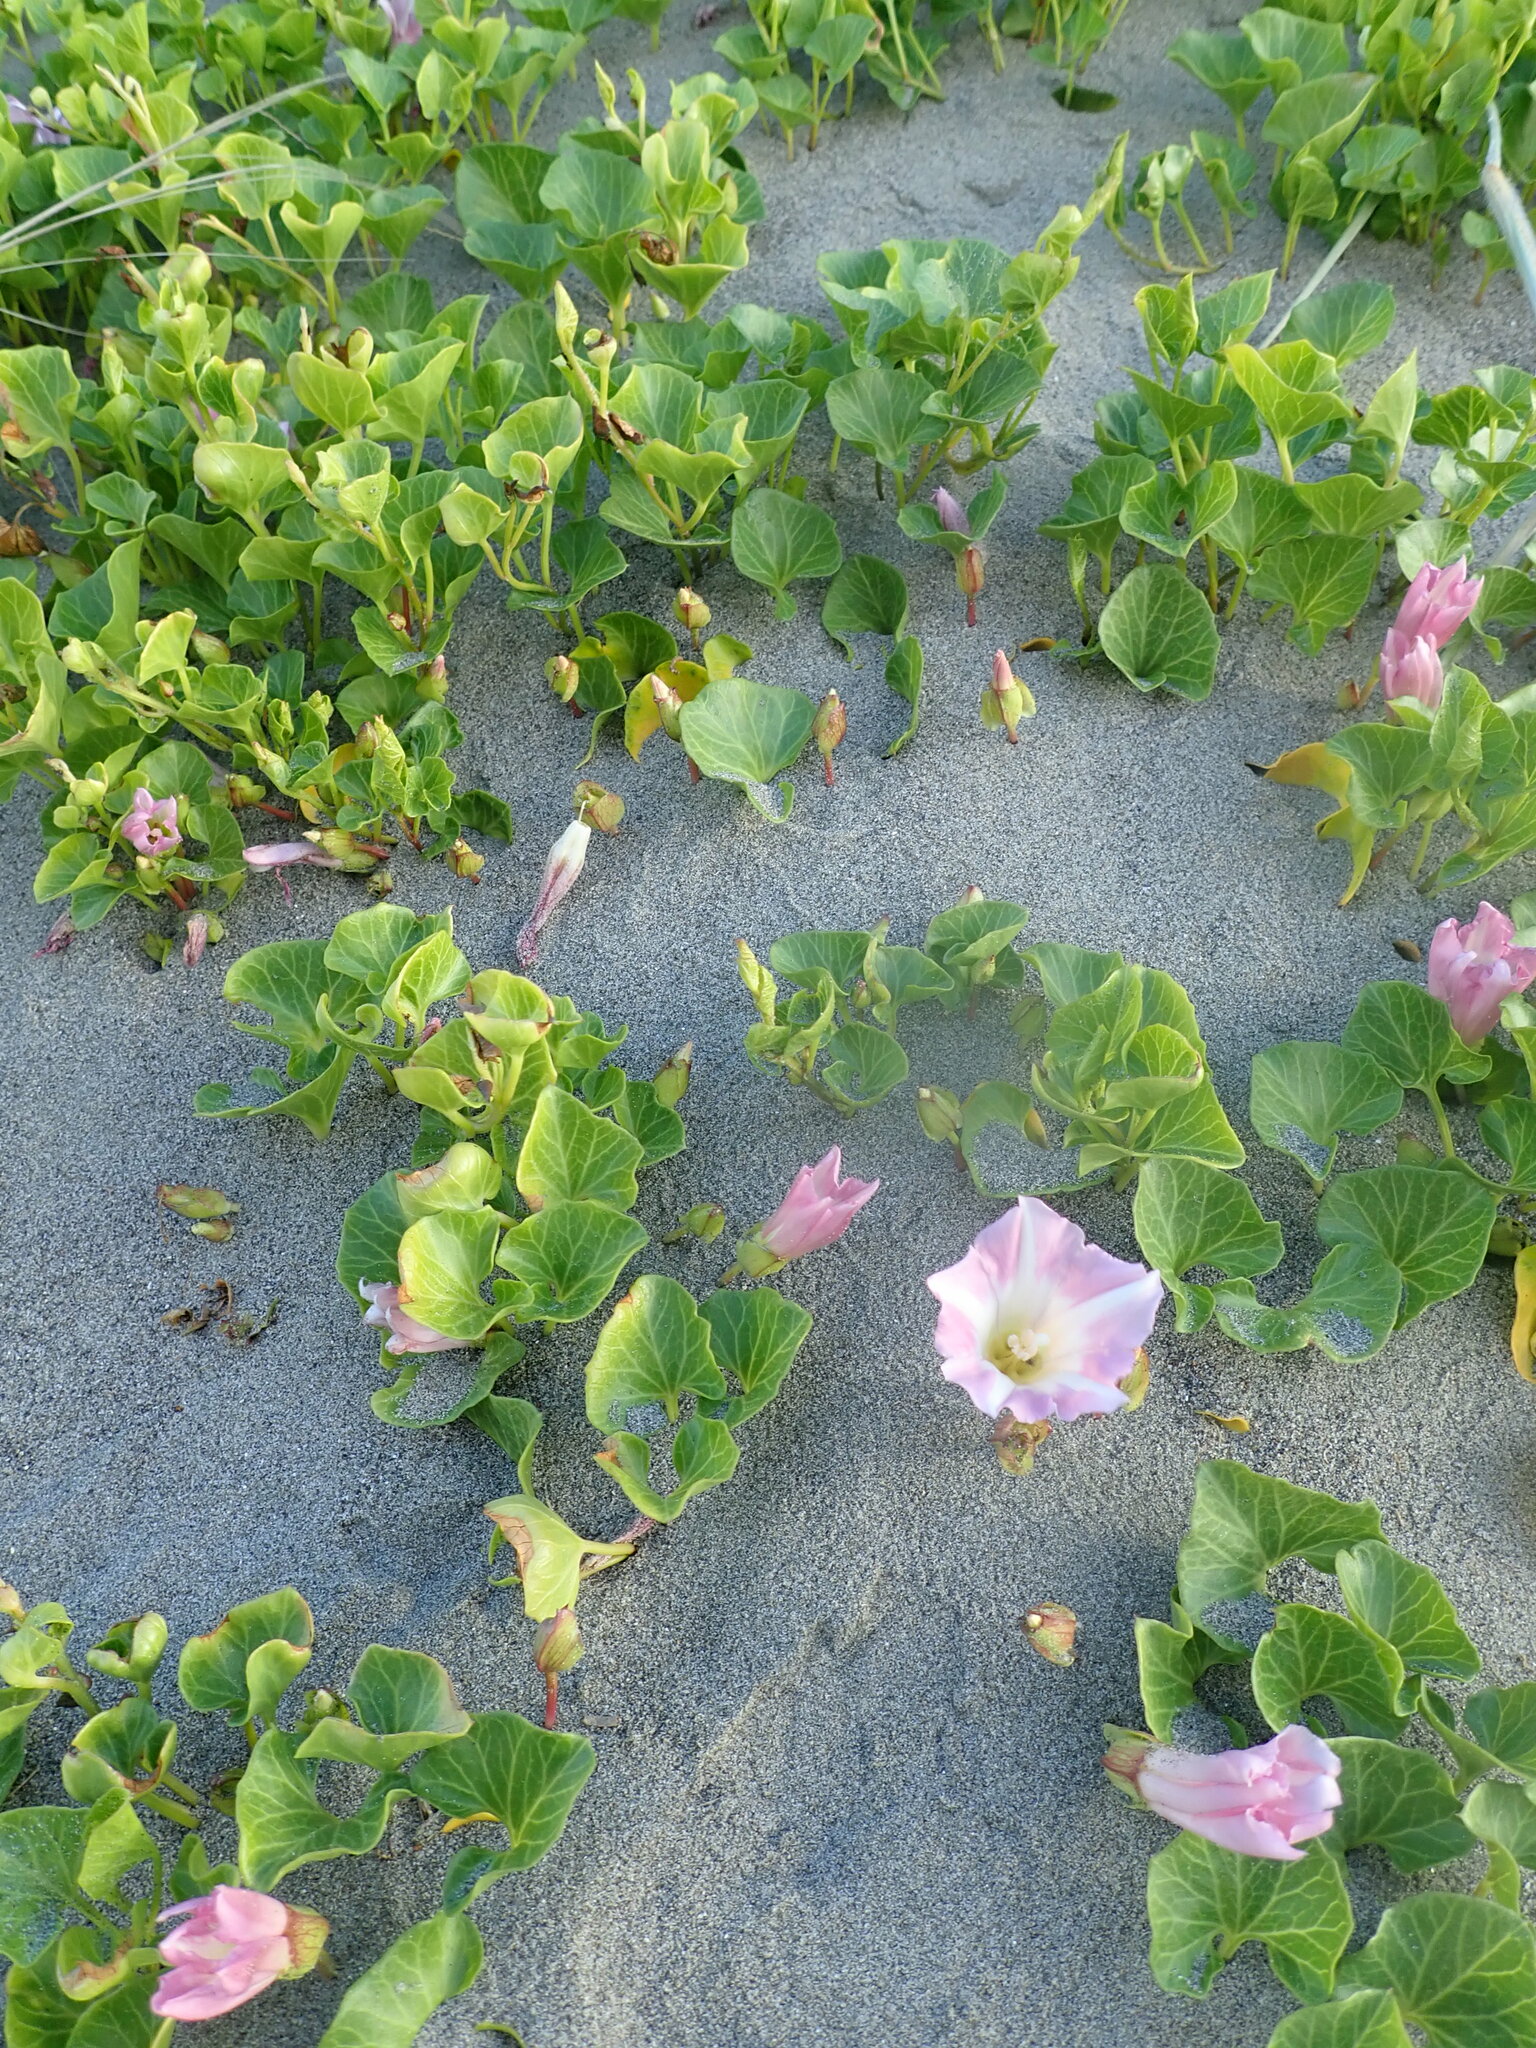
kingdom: Plantae
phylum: Tracheophyta
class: Magnoliopsida
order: Solanales
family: Convolvulaceae
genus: Calystegia
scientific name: Calystegia soldanella
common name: Sea bindweed
